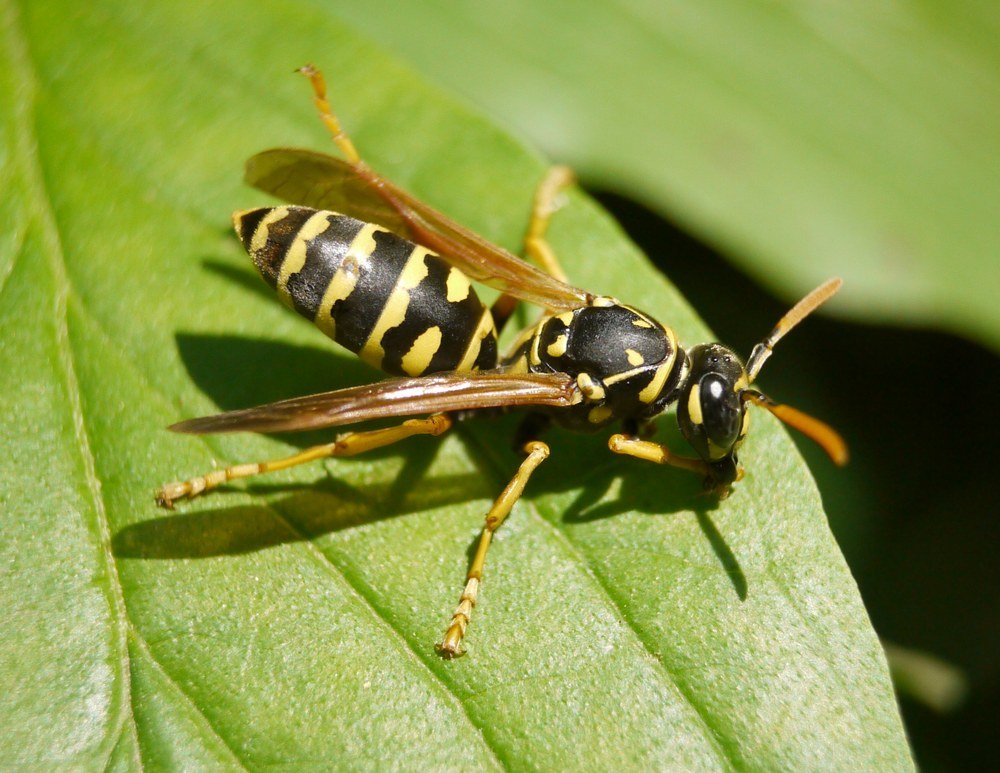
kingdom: Animalia
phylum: Arthropoda
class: Insecta
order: Hymenoptera
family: Eumenidae
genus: Polistes
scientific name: Polistes dominula
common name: Paper wasp
